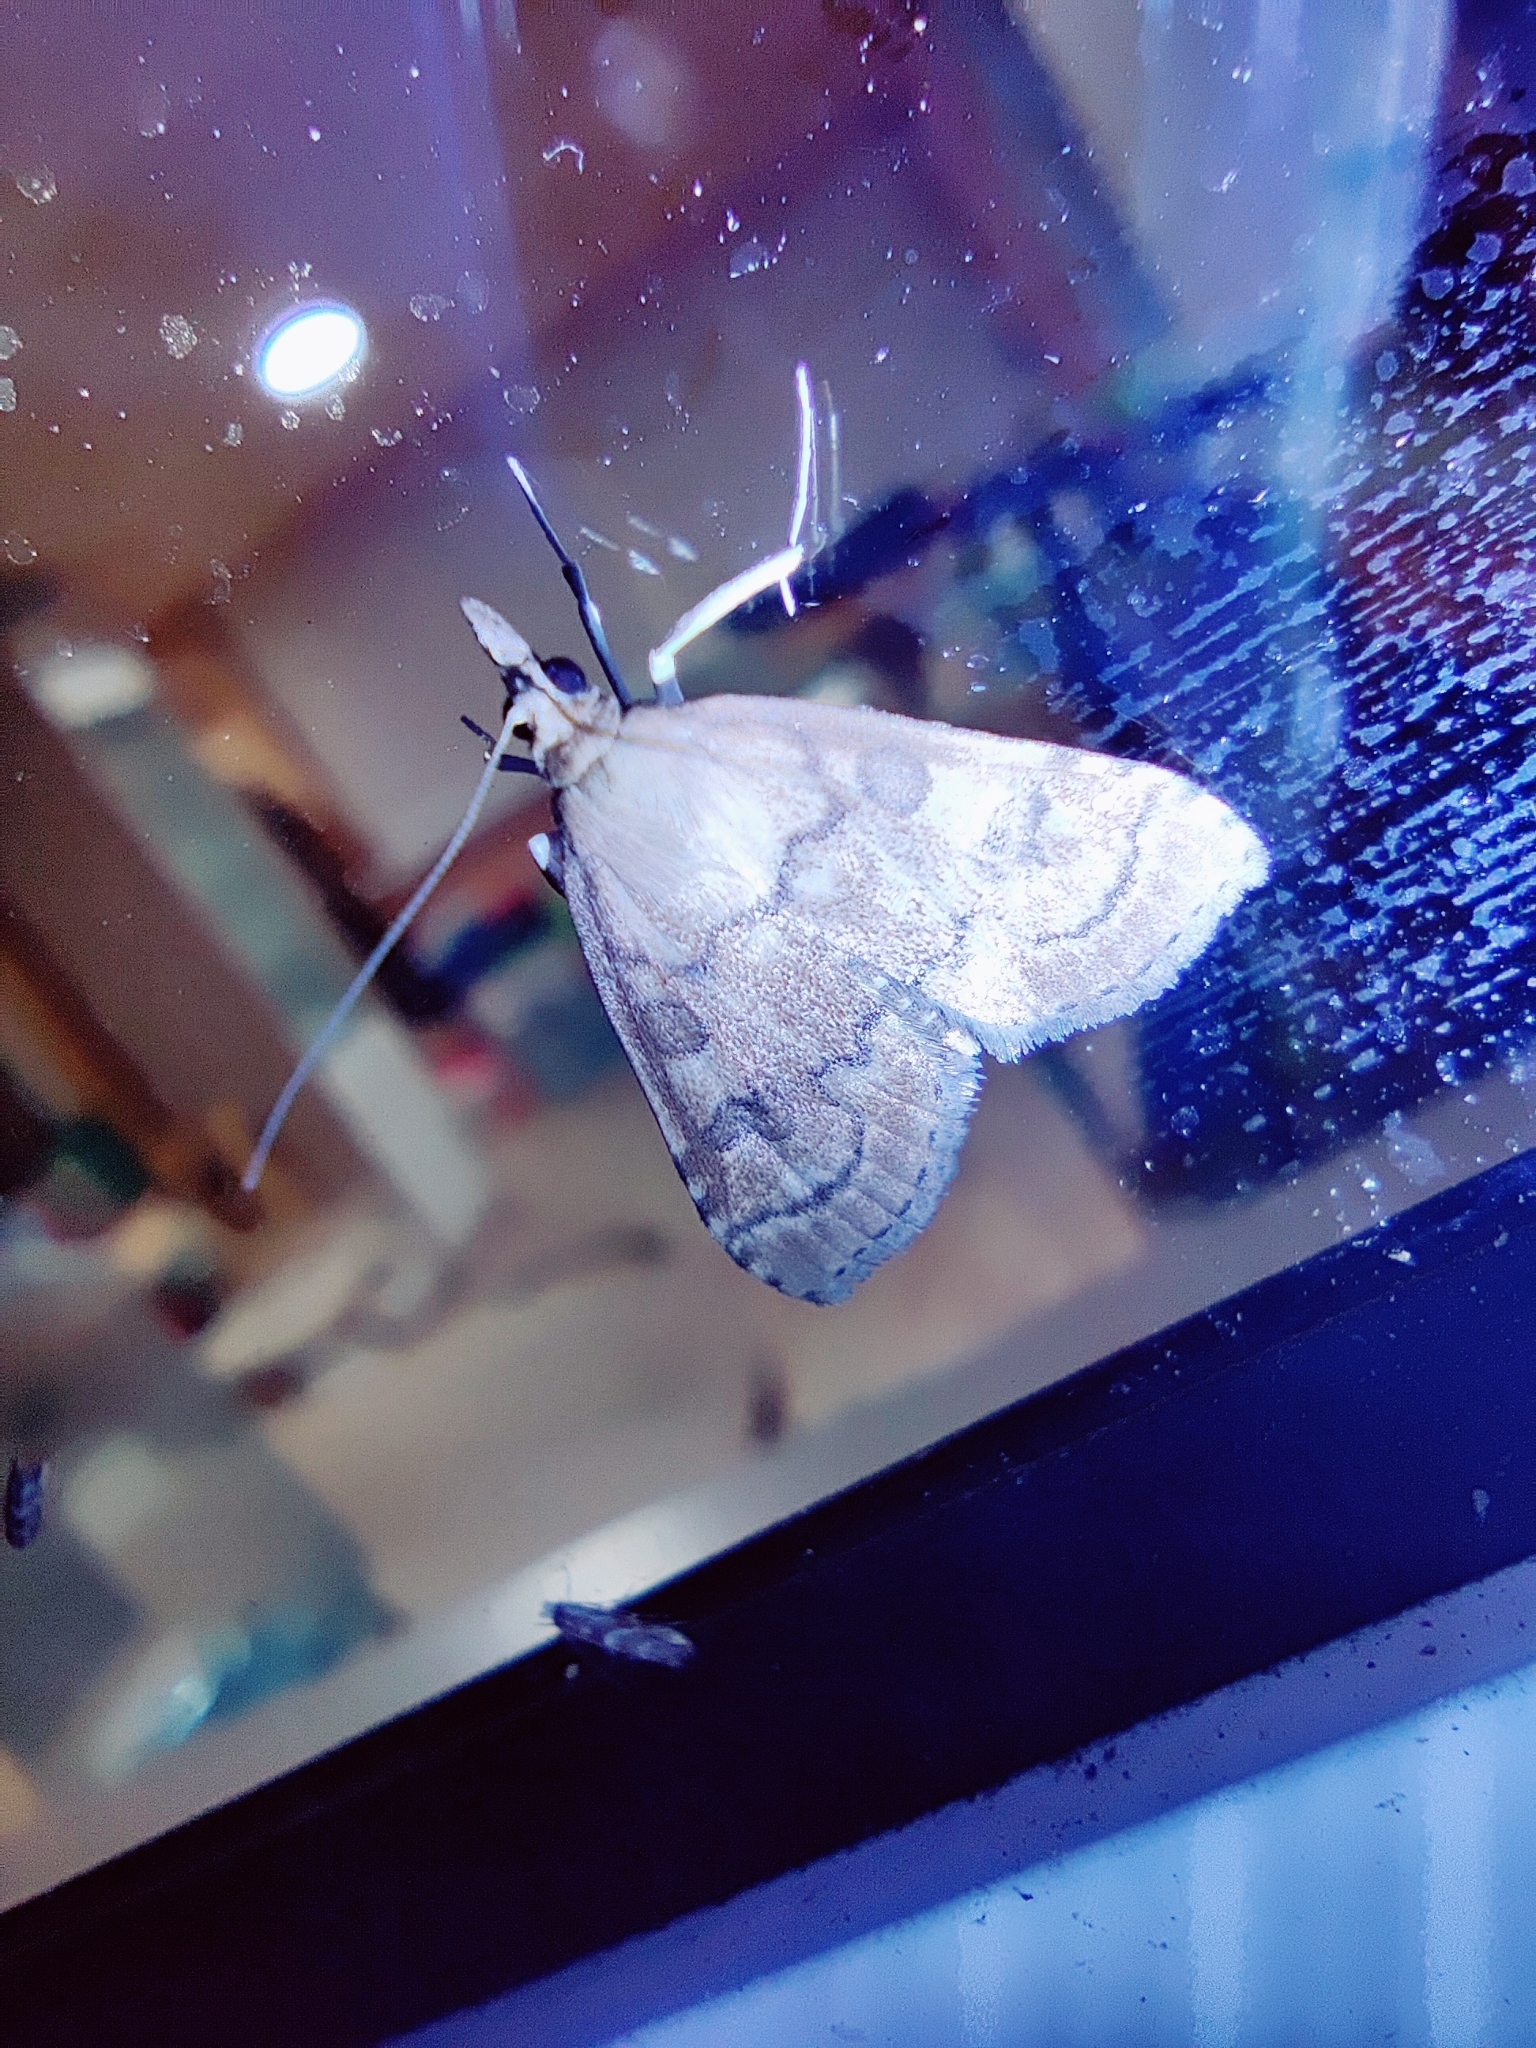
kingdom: Animalia
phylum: Arthropoda
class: Insecta
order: Lepidoptera
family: Crambidae
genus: Udea
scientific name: Udea fulvalis
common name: Fulvous pearl
